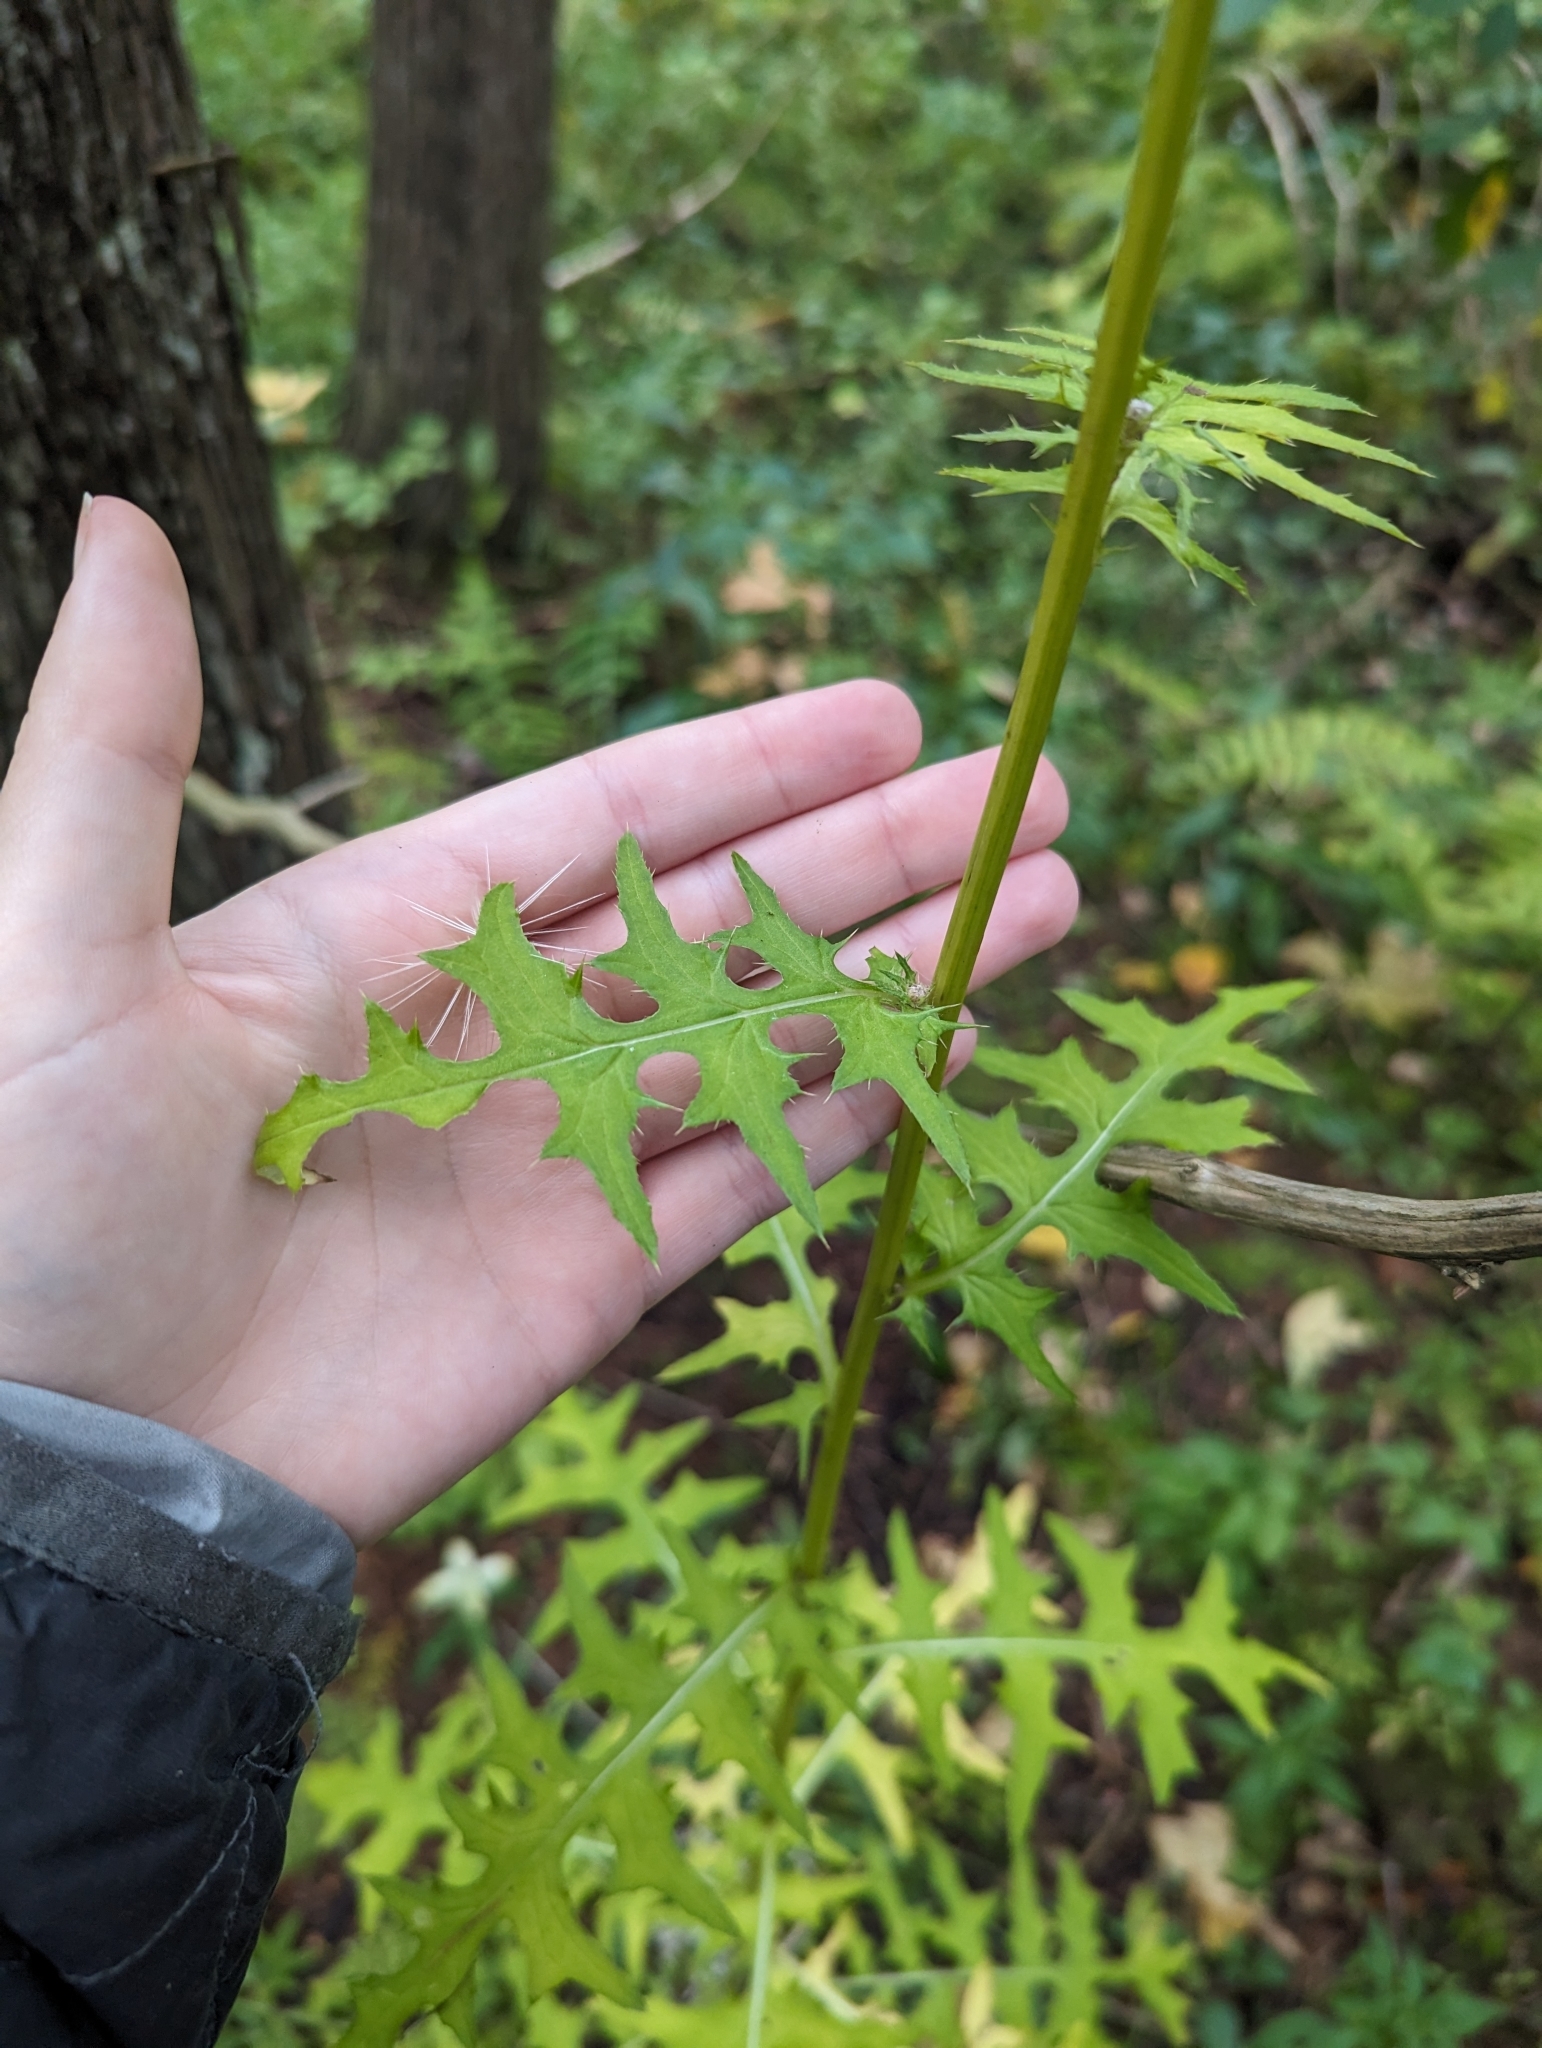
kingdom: Plantae
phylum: Tracheophyta
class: Magnoliopsida
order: Asterales
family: Asteraceae
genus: Cirsium
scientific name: Cirsium muticum
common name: Dunce-nettle
